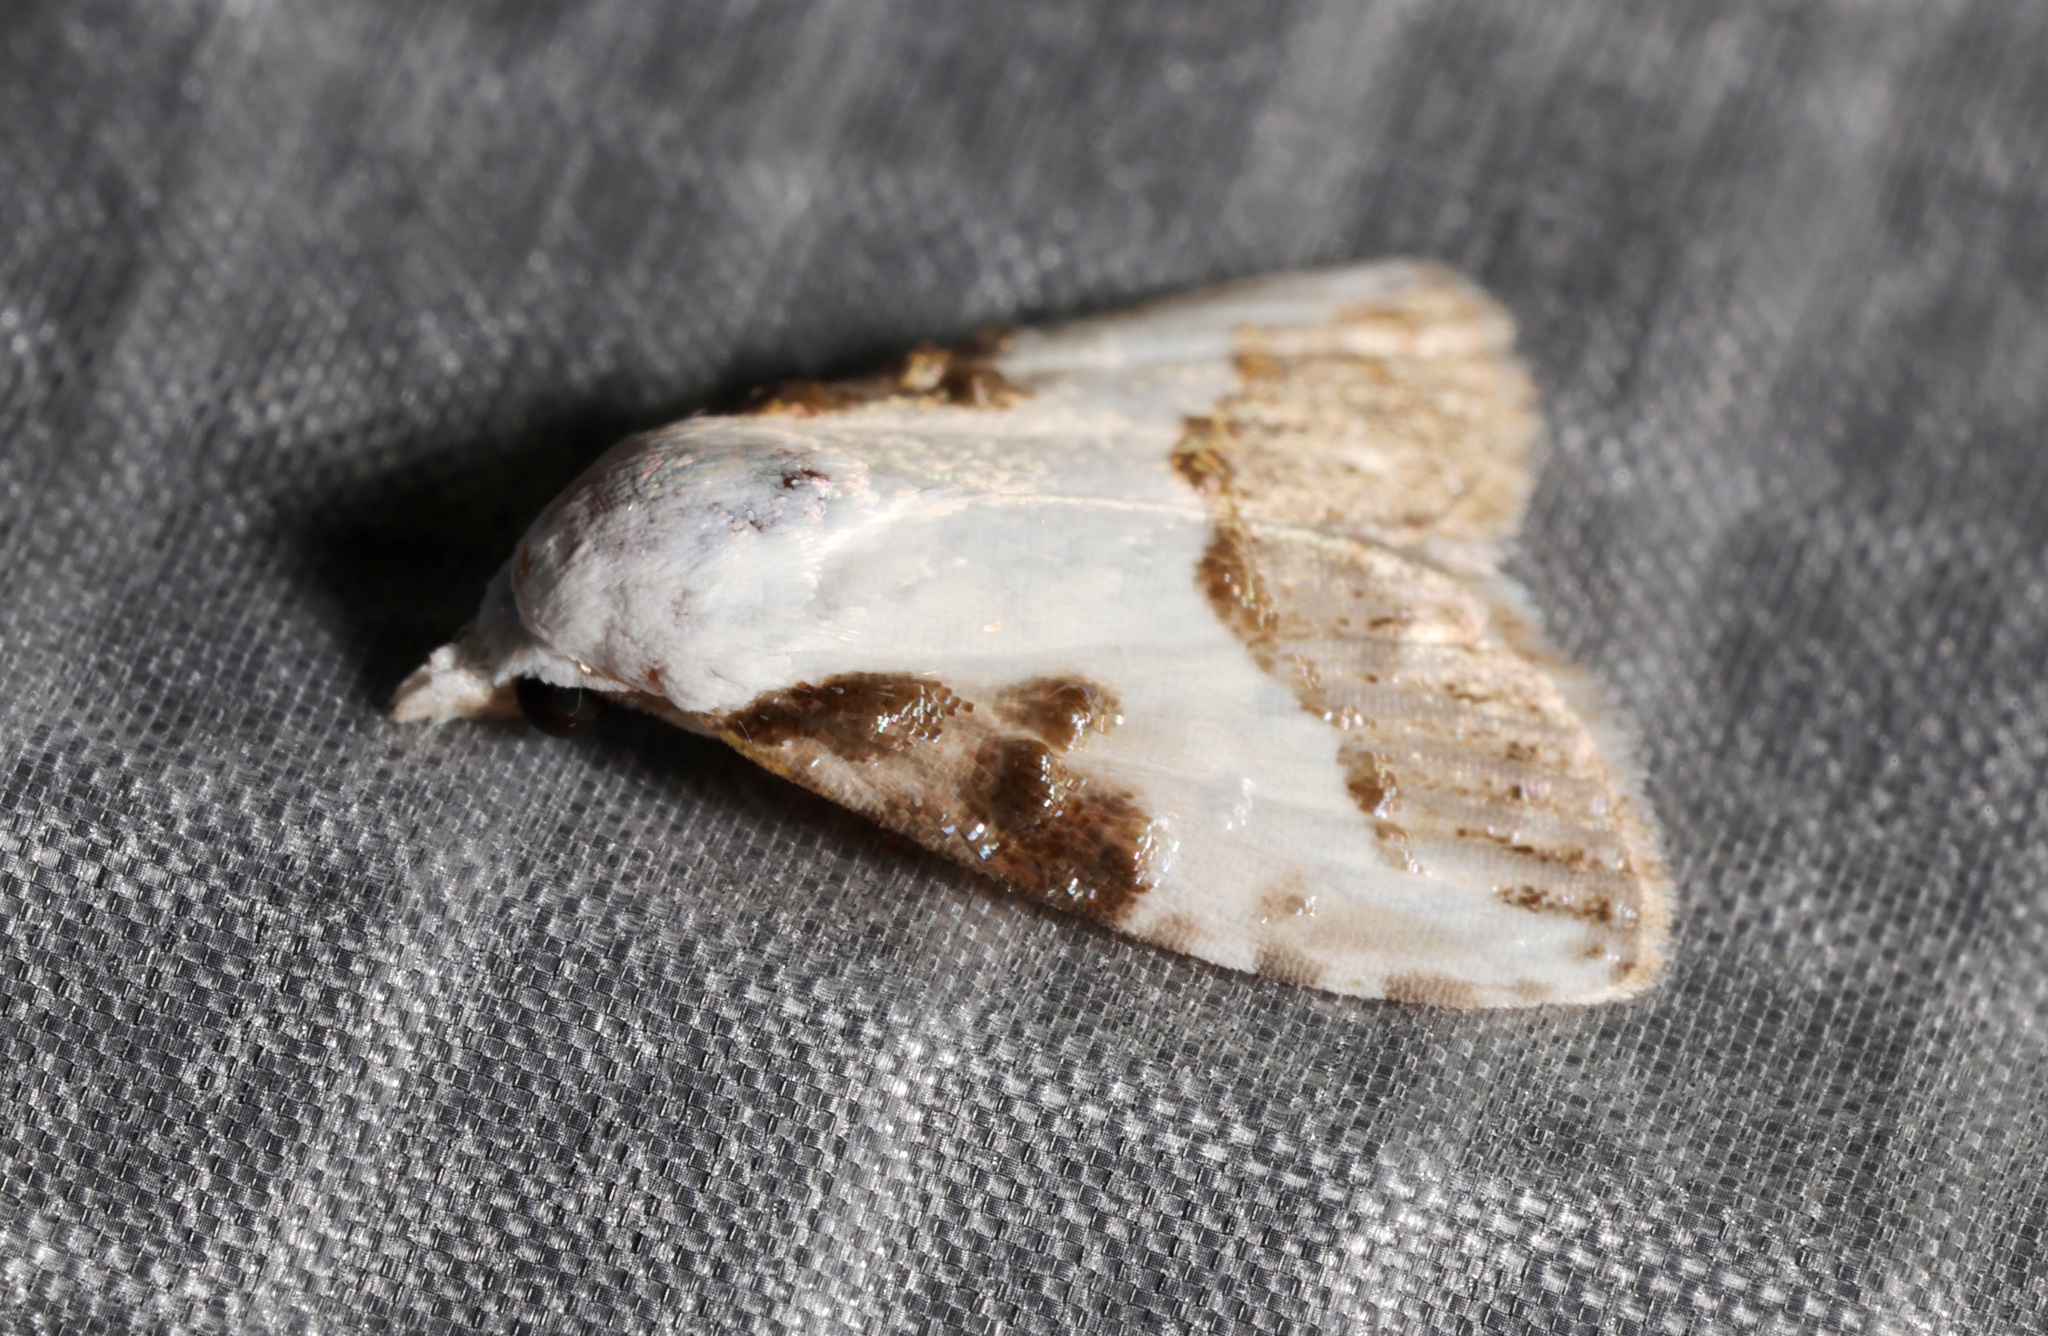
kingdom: Animalia
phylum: Arthropoda
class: Insecta
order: Lepidoptera
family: Nolidae
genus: Aeneanola
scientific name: Aeneanola acontioides
